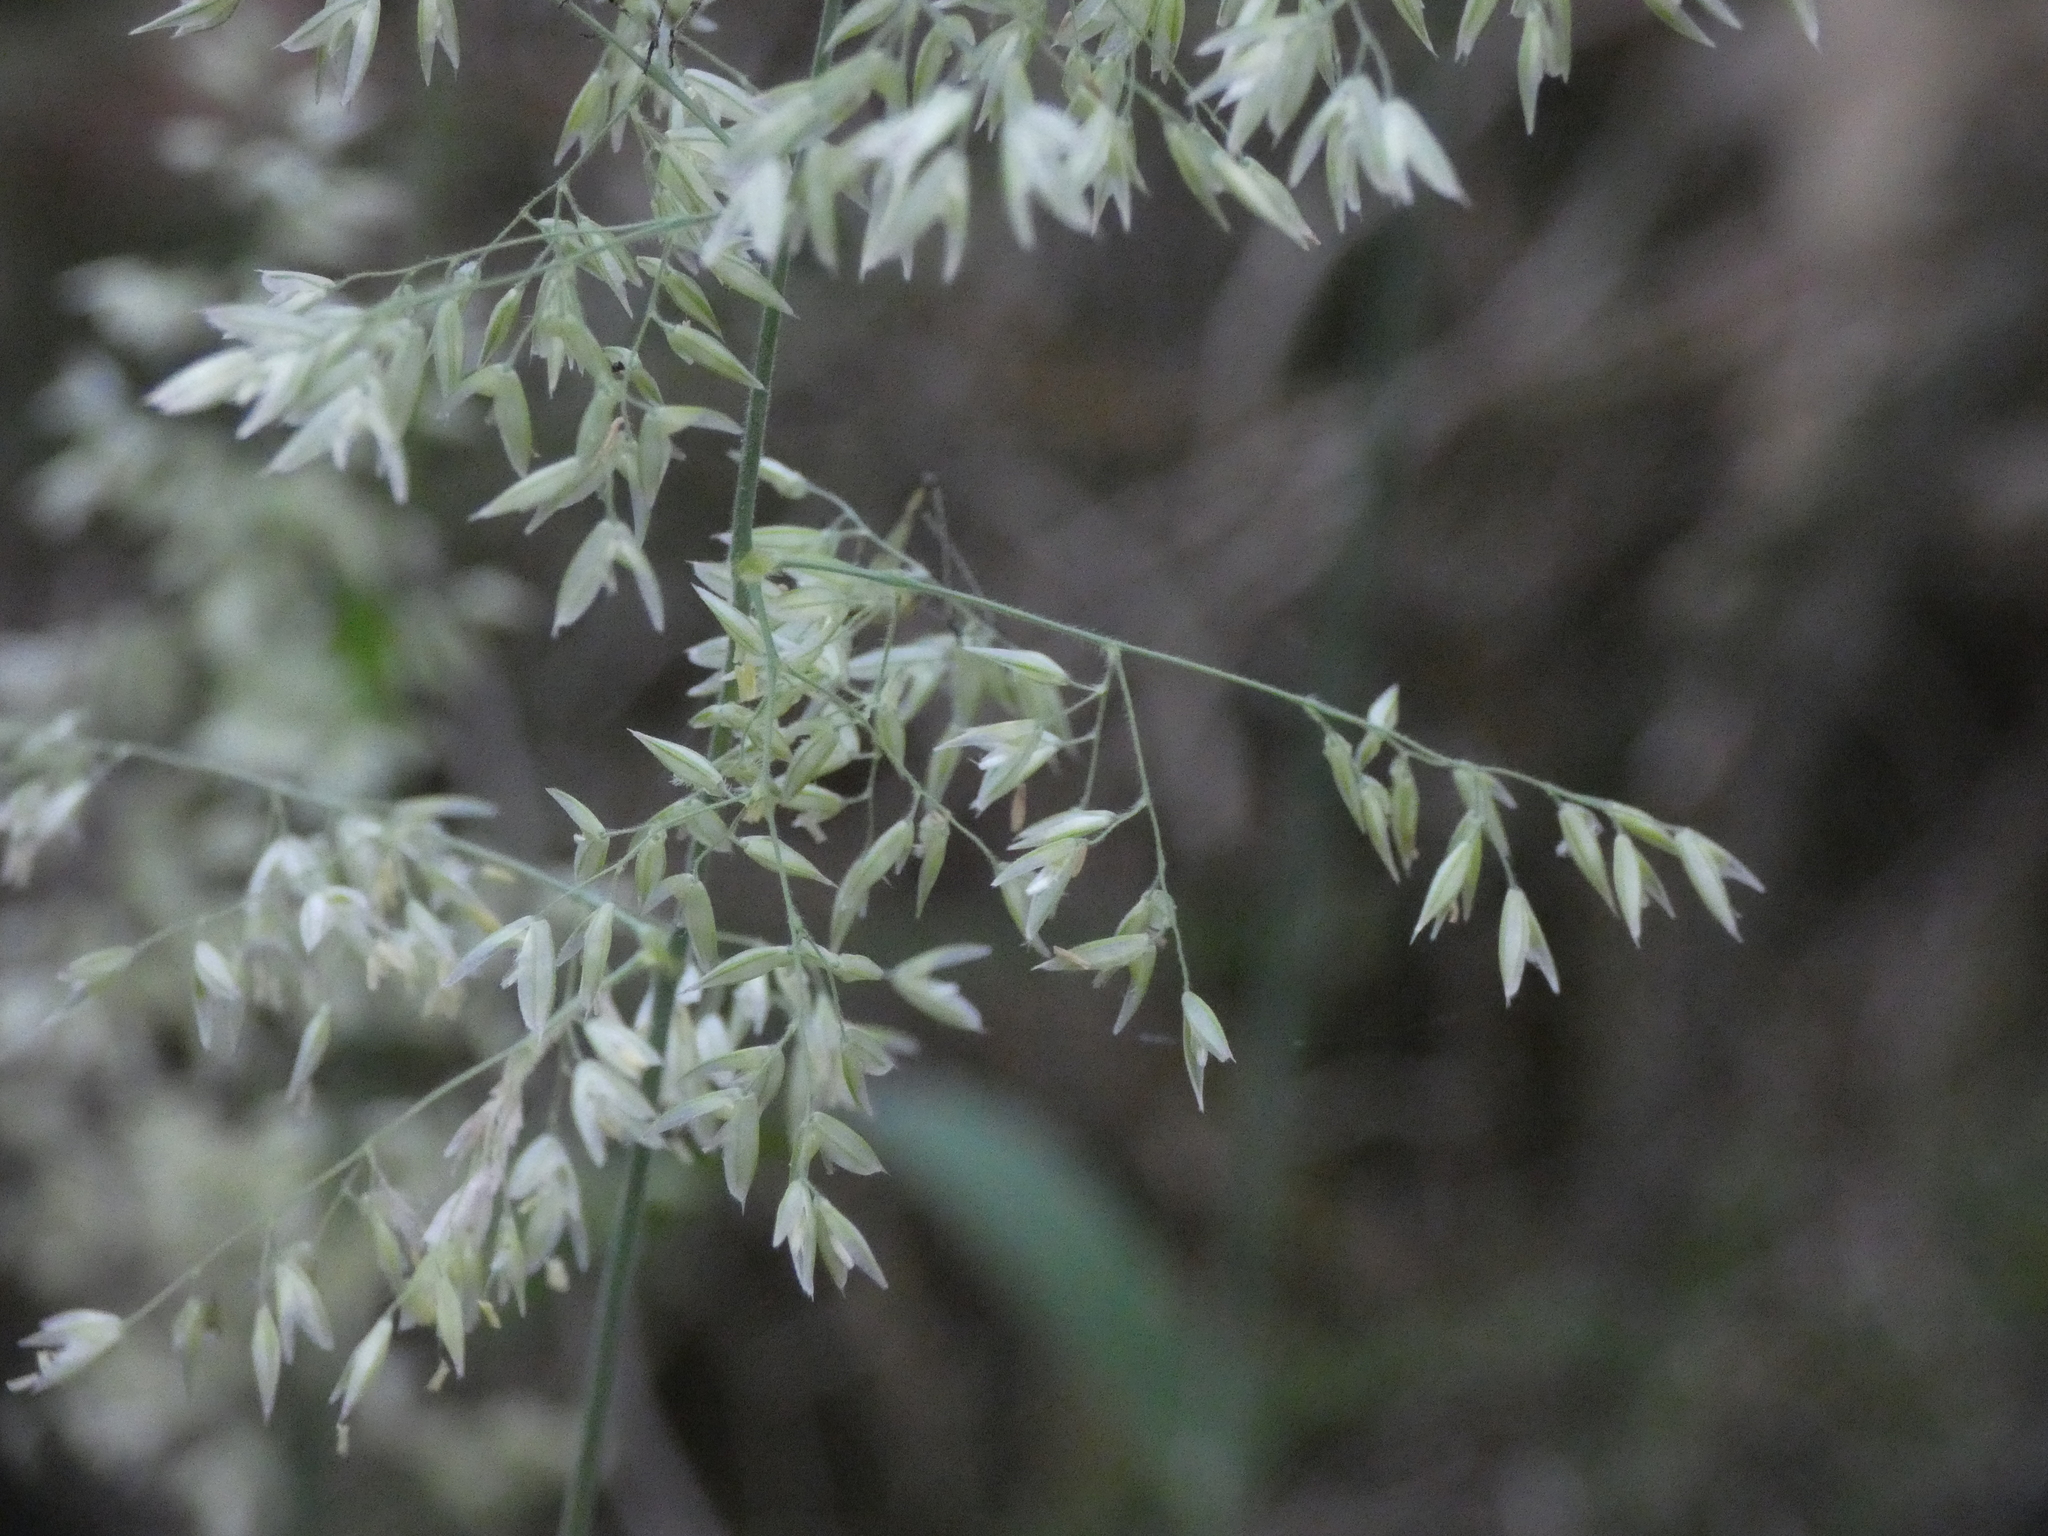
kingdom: Plantae
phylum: Tracheophyta
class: Liliopsida
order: Poales
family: Poaceae
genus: Holcus
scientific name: Holcus lanatus
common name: Yorkshire-fog
